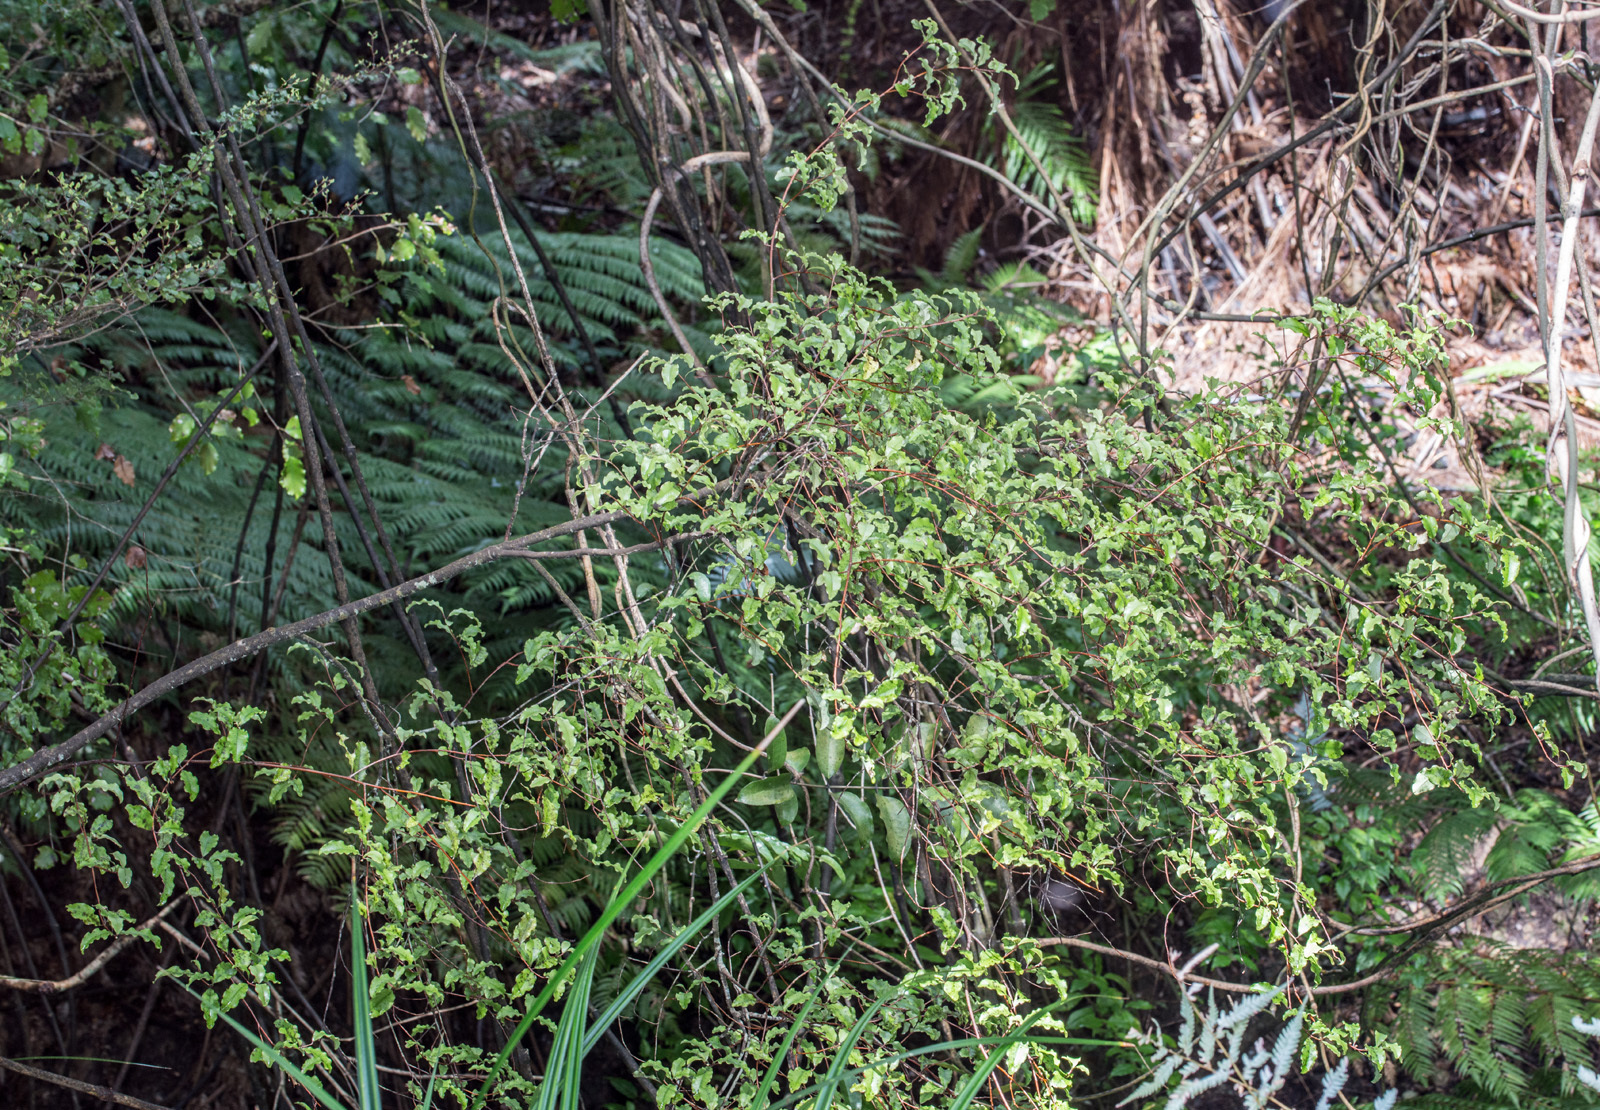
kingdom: Plantae
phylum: Tracheophyta
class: Magnoliopsida
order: Ericales
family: Primulaceae
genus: Myrsine
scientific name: Myrsine australis
